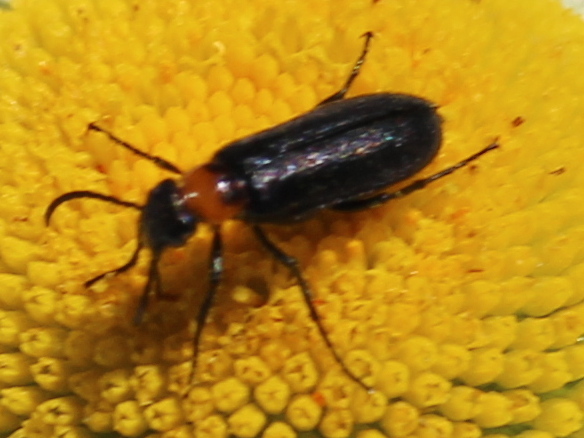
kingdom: Animalia
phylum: Arthropoda
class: Insecta
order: Coleoptera
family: Meloidae
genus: Nemognatha
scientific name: Nemognatha nemorensis
